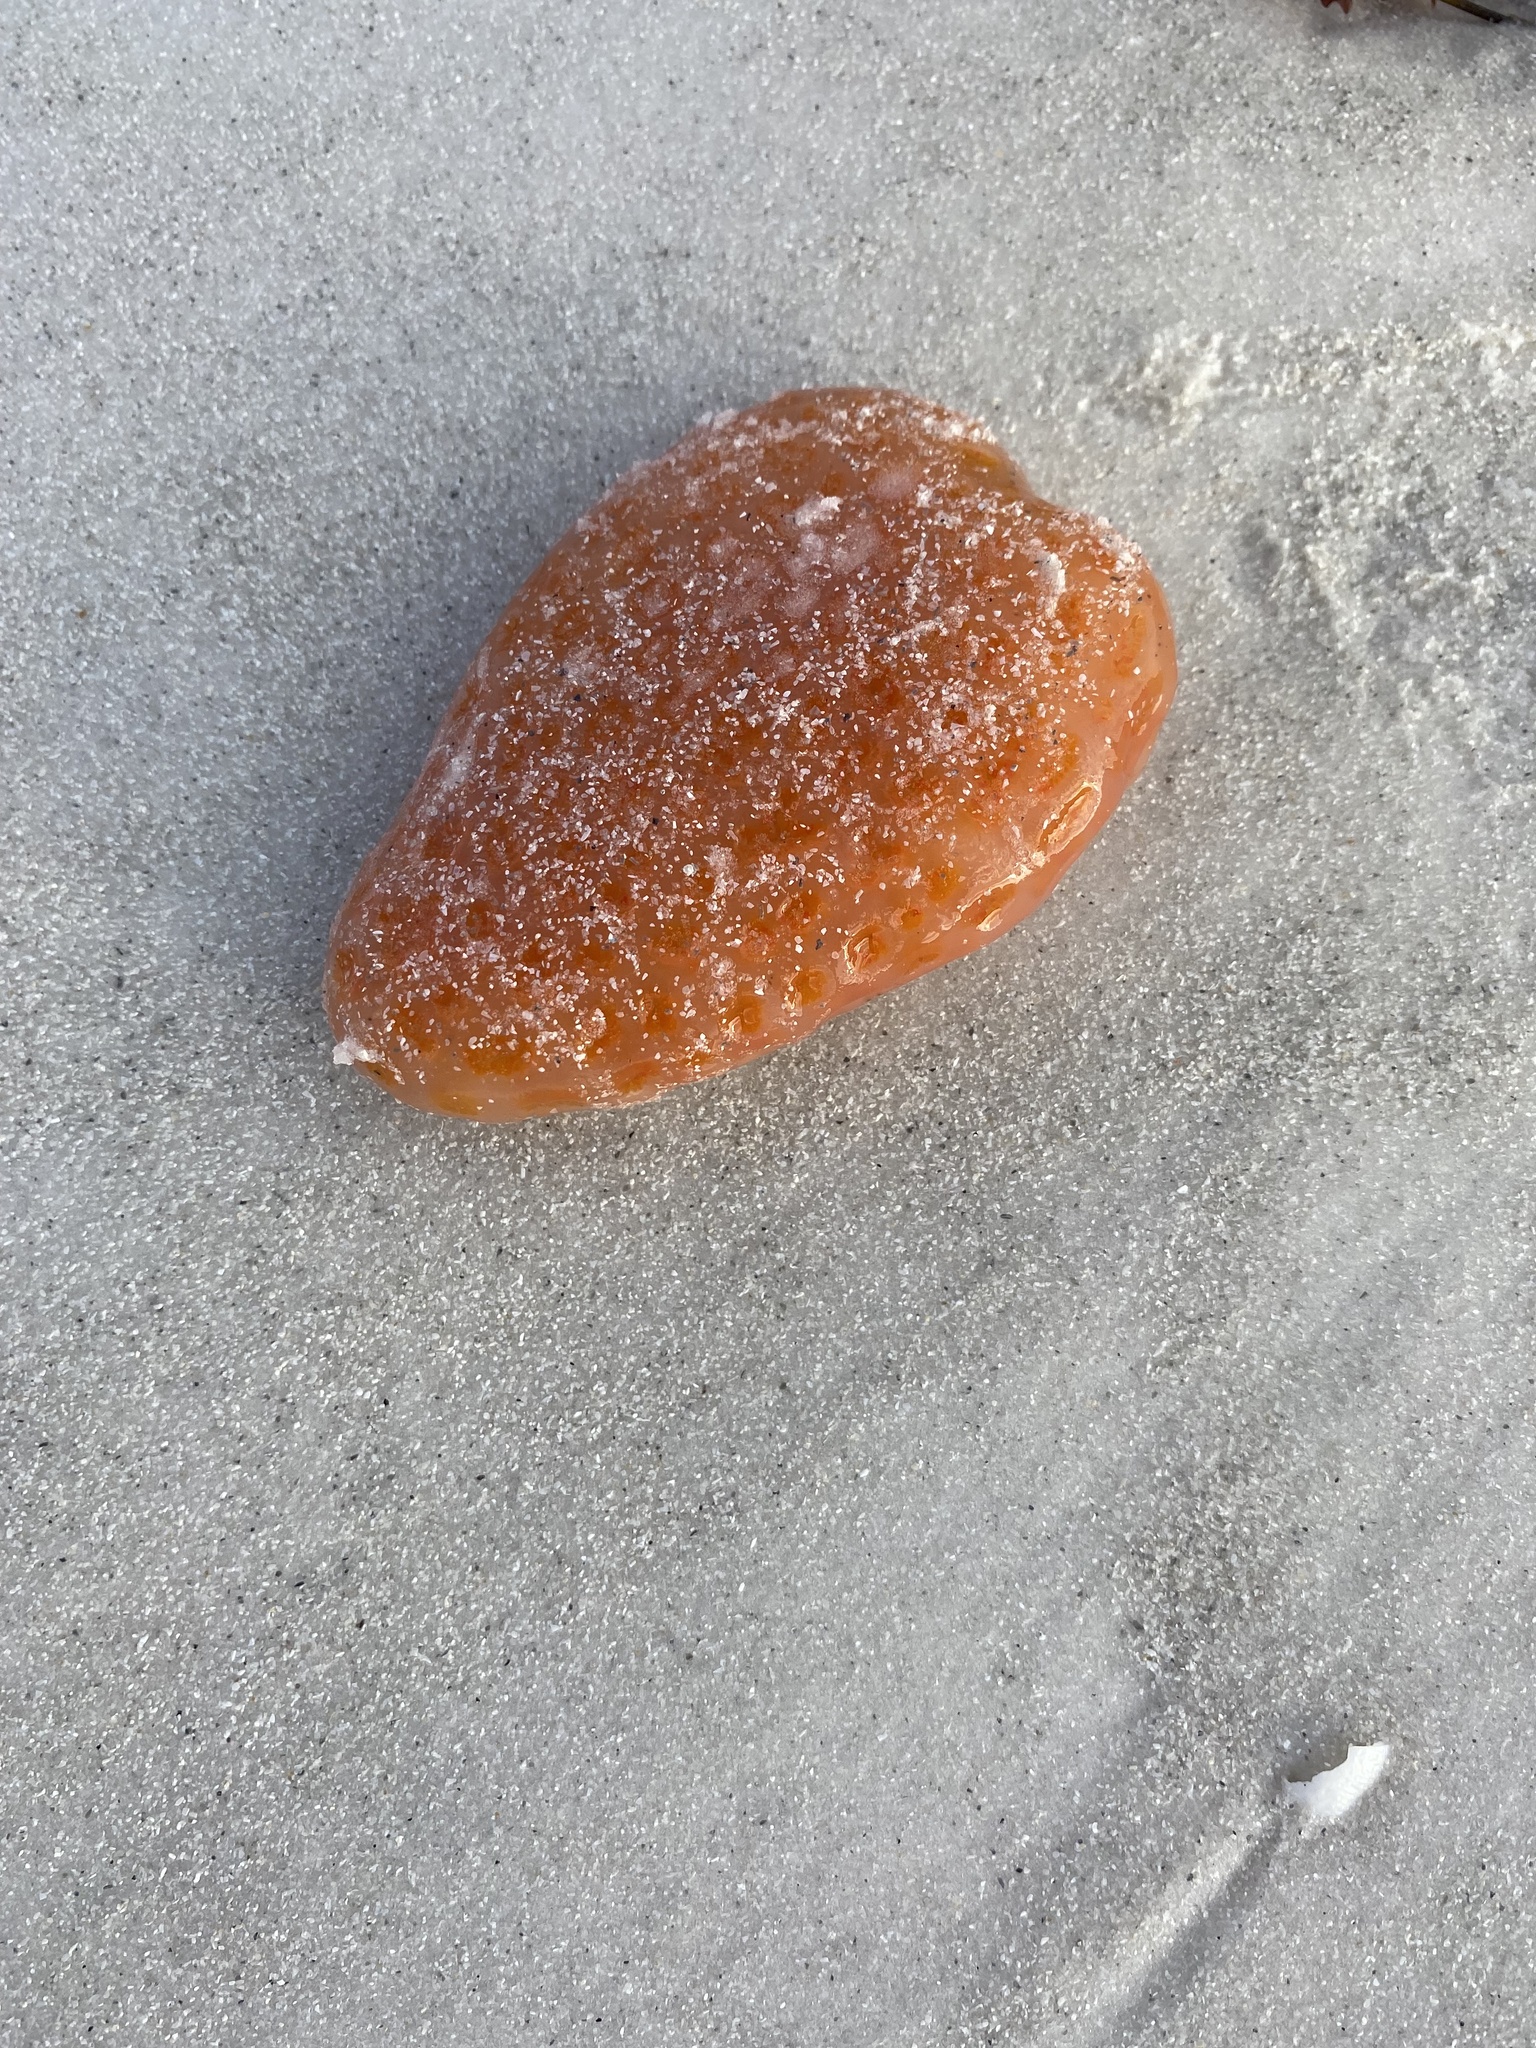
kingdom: Animalia
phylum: Chordata
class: Ascidiacea
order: Aplousobranchia
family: Polyclinidae
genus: Aplidium
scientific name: Aplidium stellatum
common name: Atlantic sea pork
